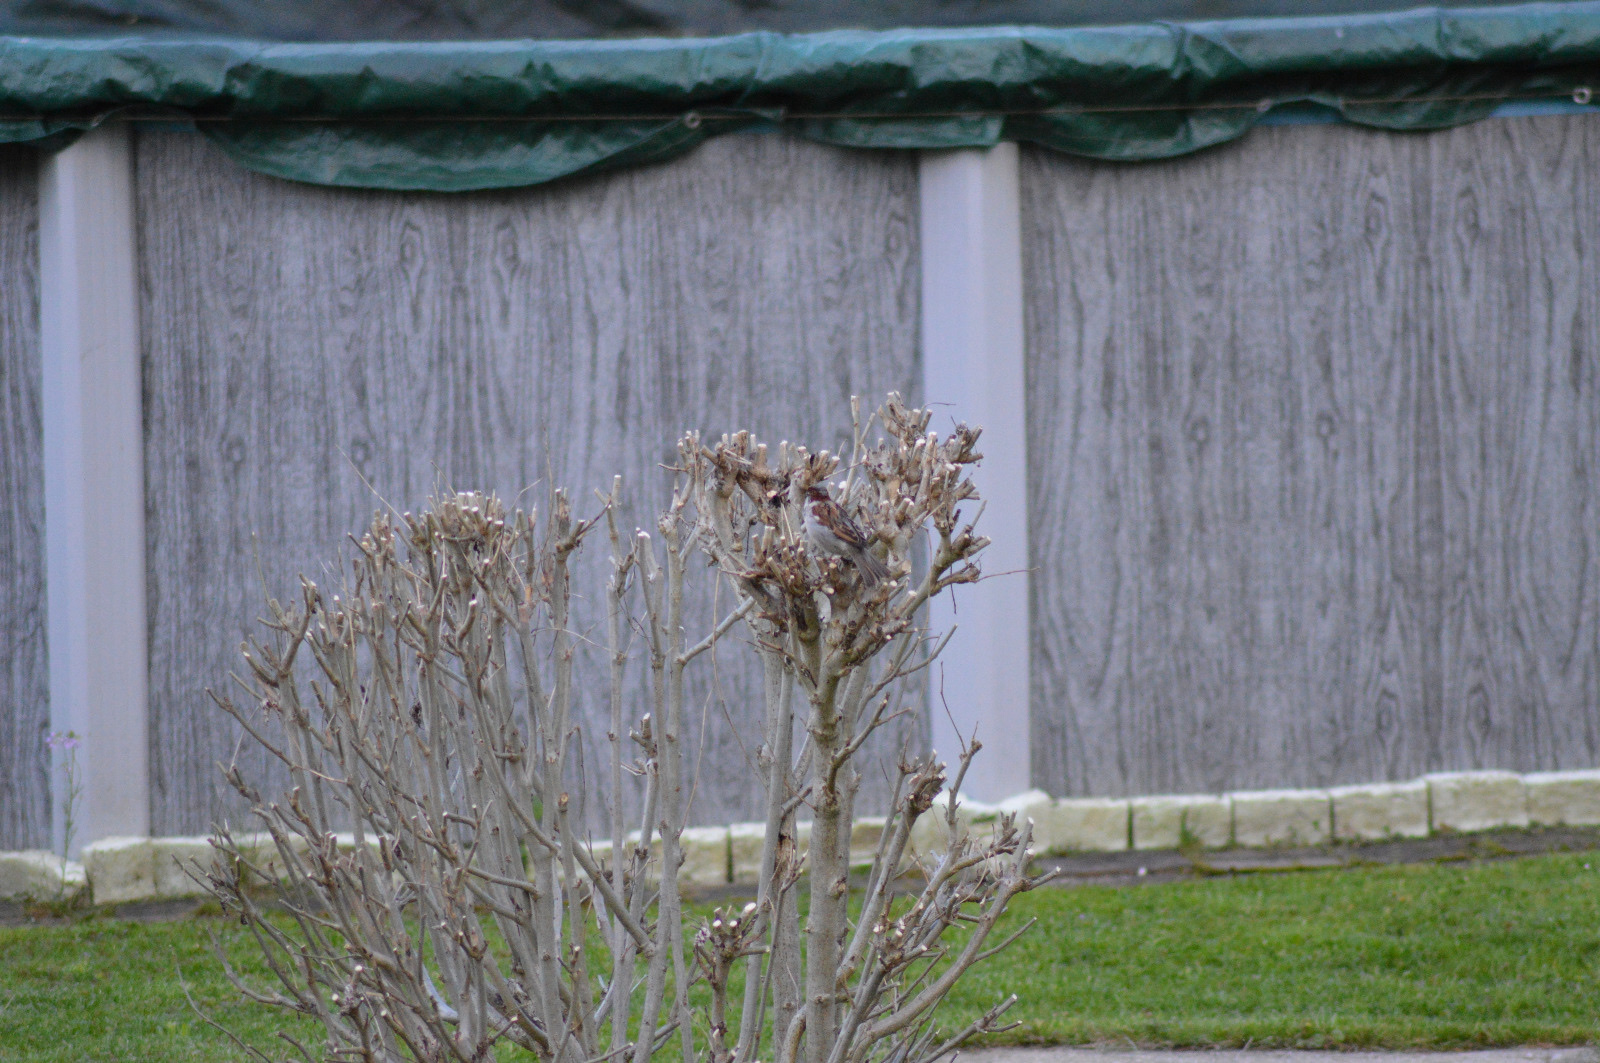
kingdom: Animalia
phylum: Chordata
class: Aves
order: Passeriformes
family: Passeridae
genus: Passer
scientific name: Passer domesticus
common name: House sparrow
